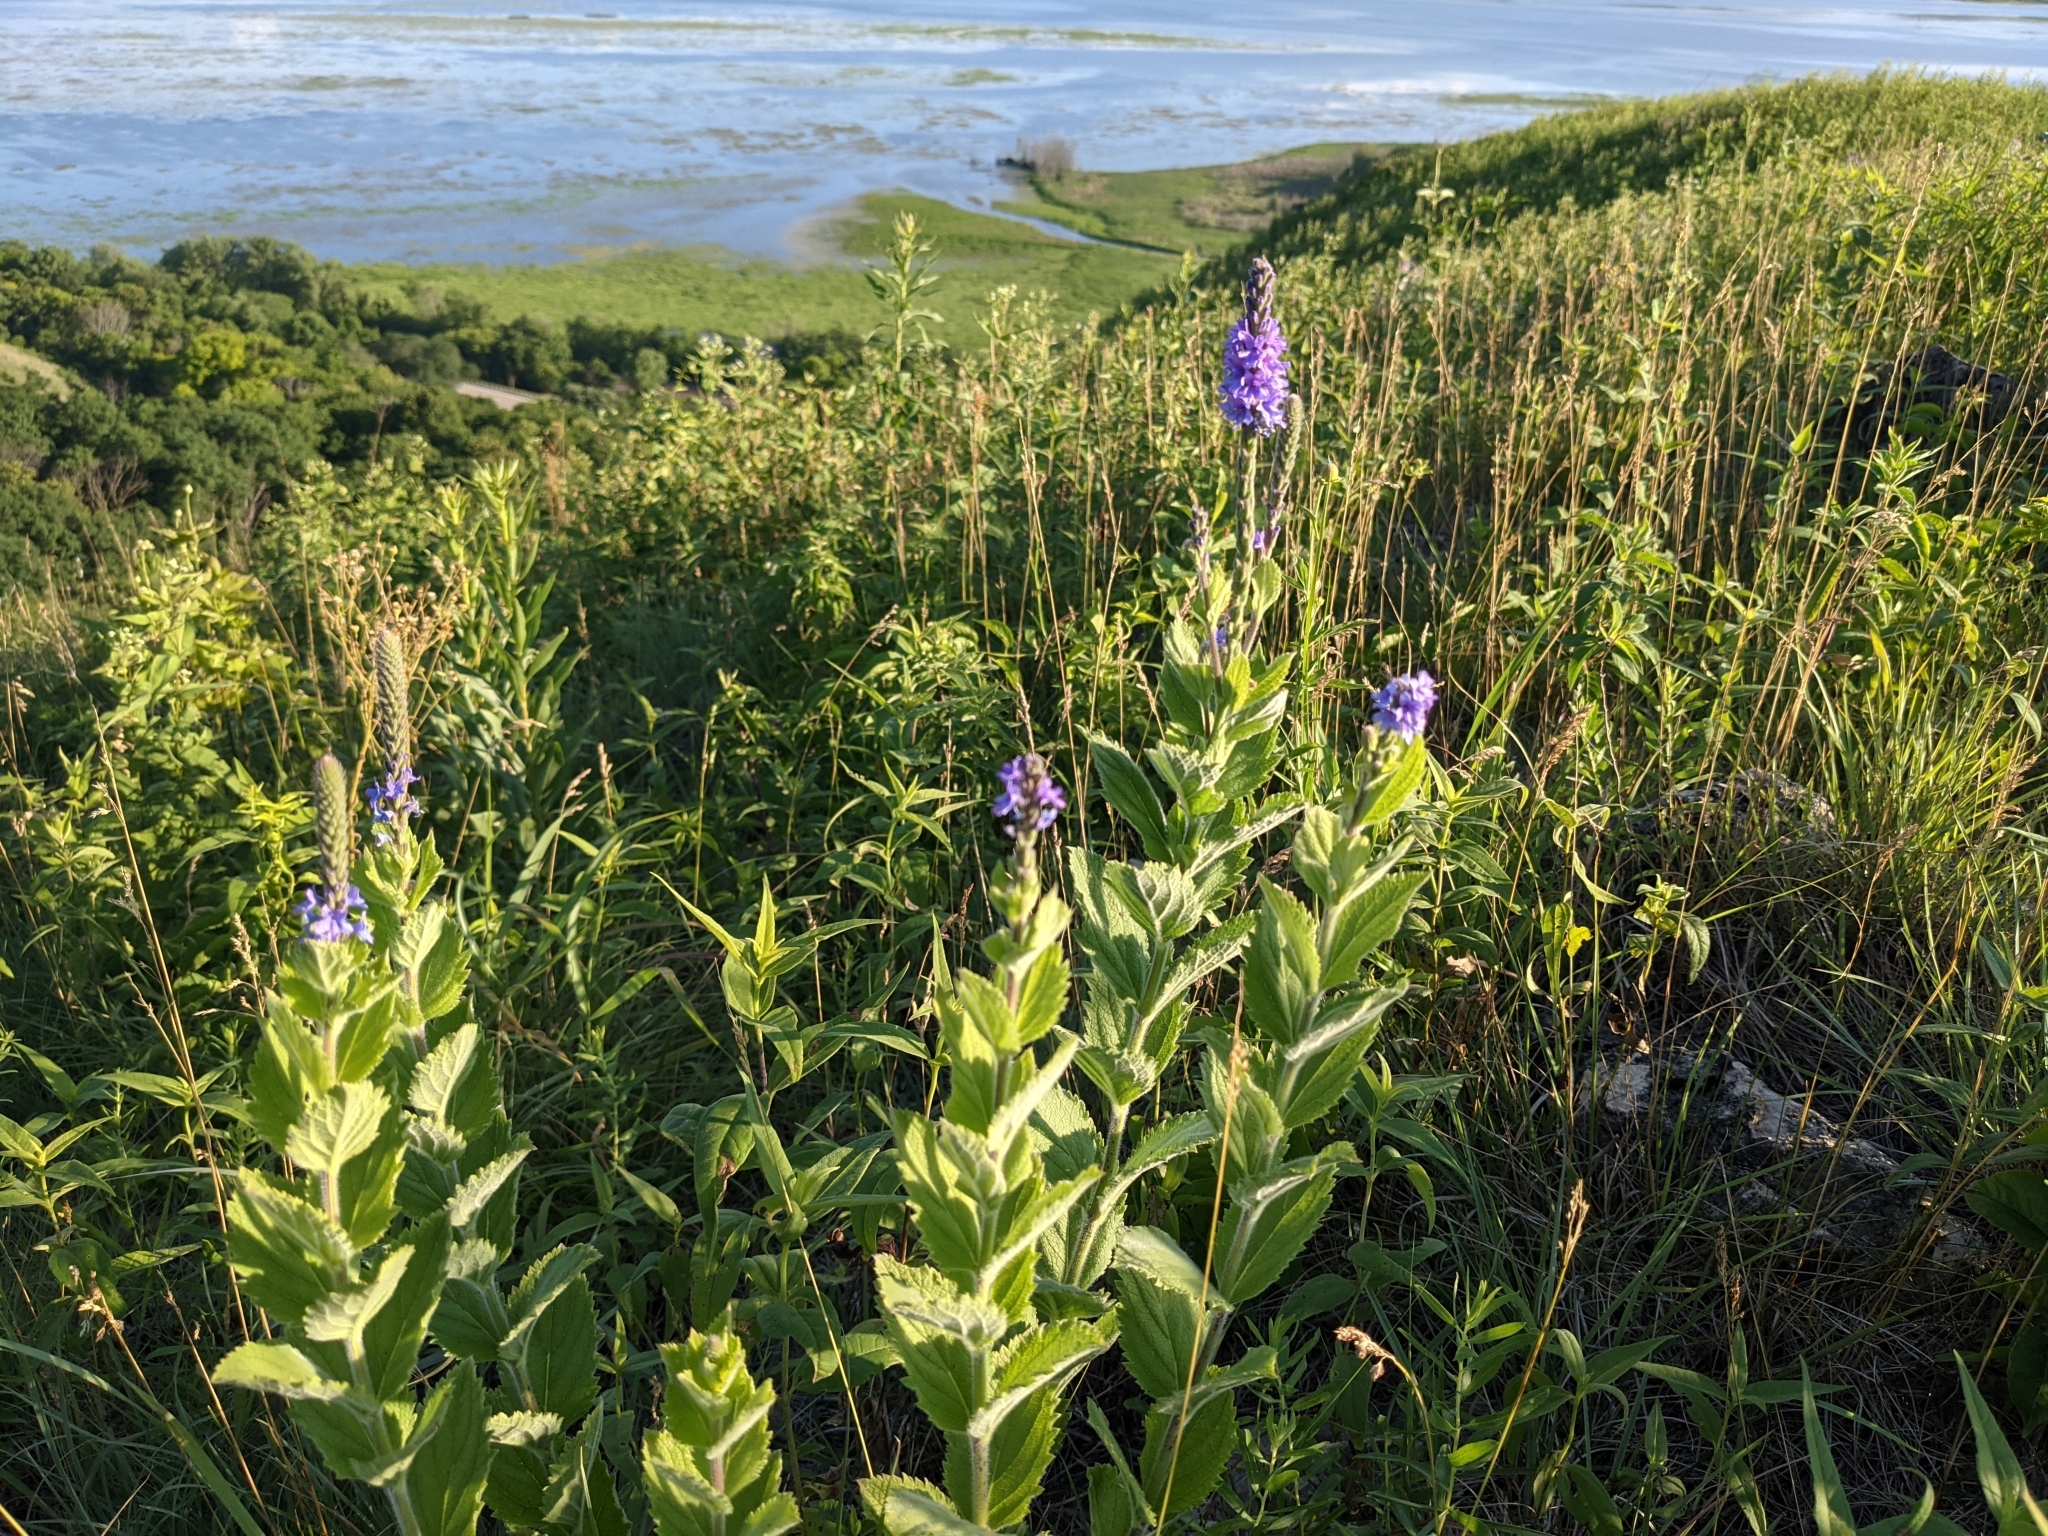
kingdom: Plantae
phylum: Tracheophyta
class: Magnoliopsida
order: Lamiales
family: Verbenaceae
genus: Verbena
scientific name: Verbena stricta
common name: Hoary vervain
